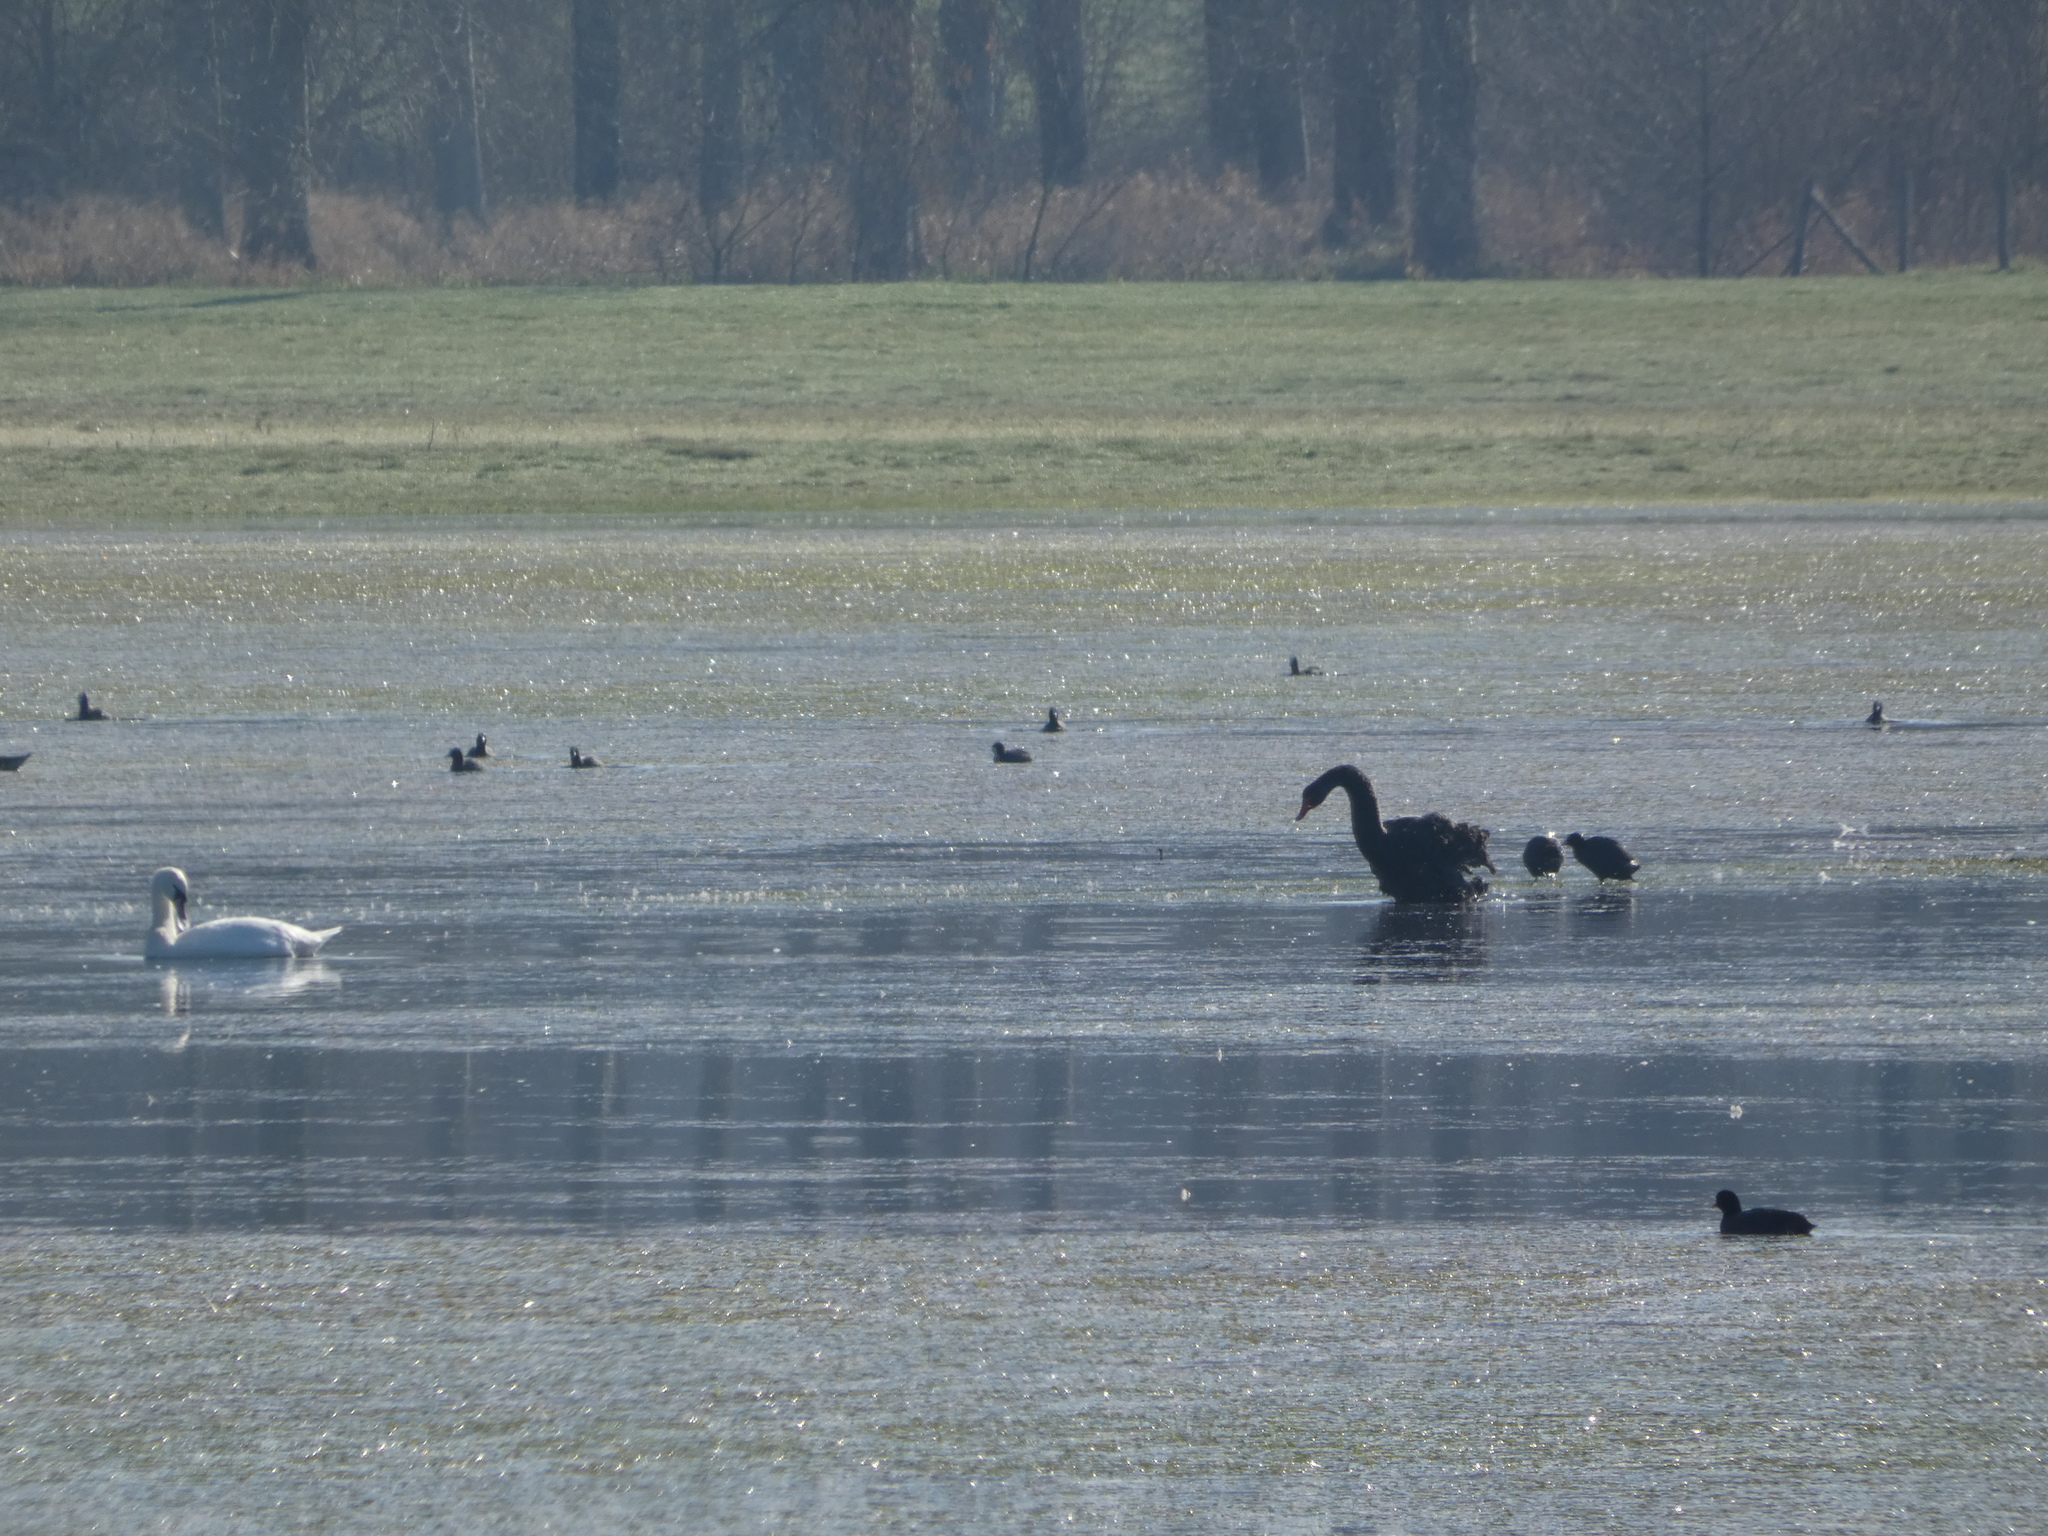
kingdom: Animalia
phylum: Chordata
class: Aves
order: Anseriformes
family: Anatidae
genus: Cygnus
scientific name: Cygnus olor
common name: Mute swan
